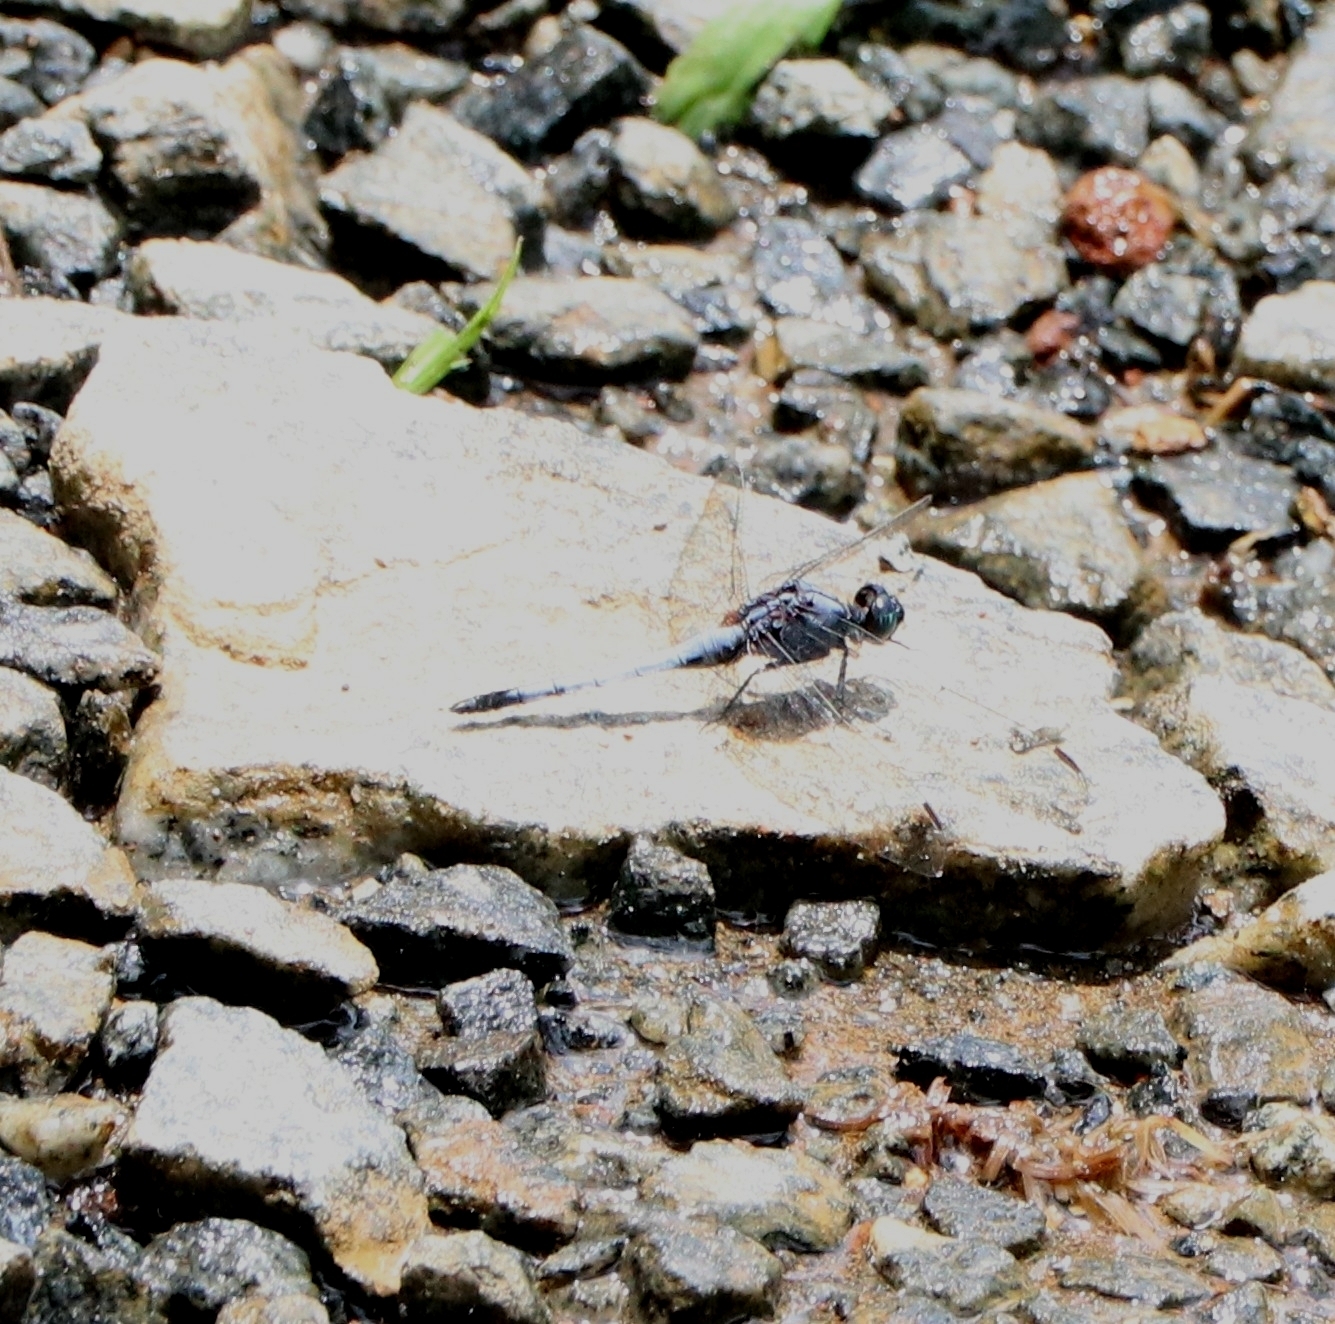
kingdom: Animalia
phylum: Arthropoda
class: Insecta
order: Odonata
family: Libellulidae
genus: Orthetrum
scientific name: Orthetrum glaucum
